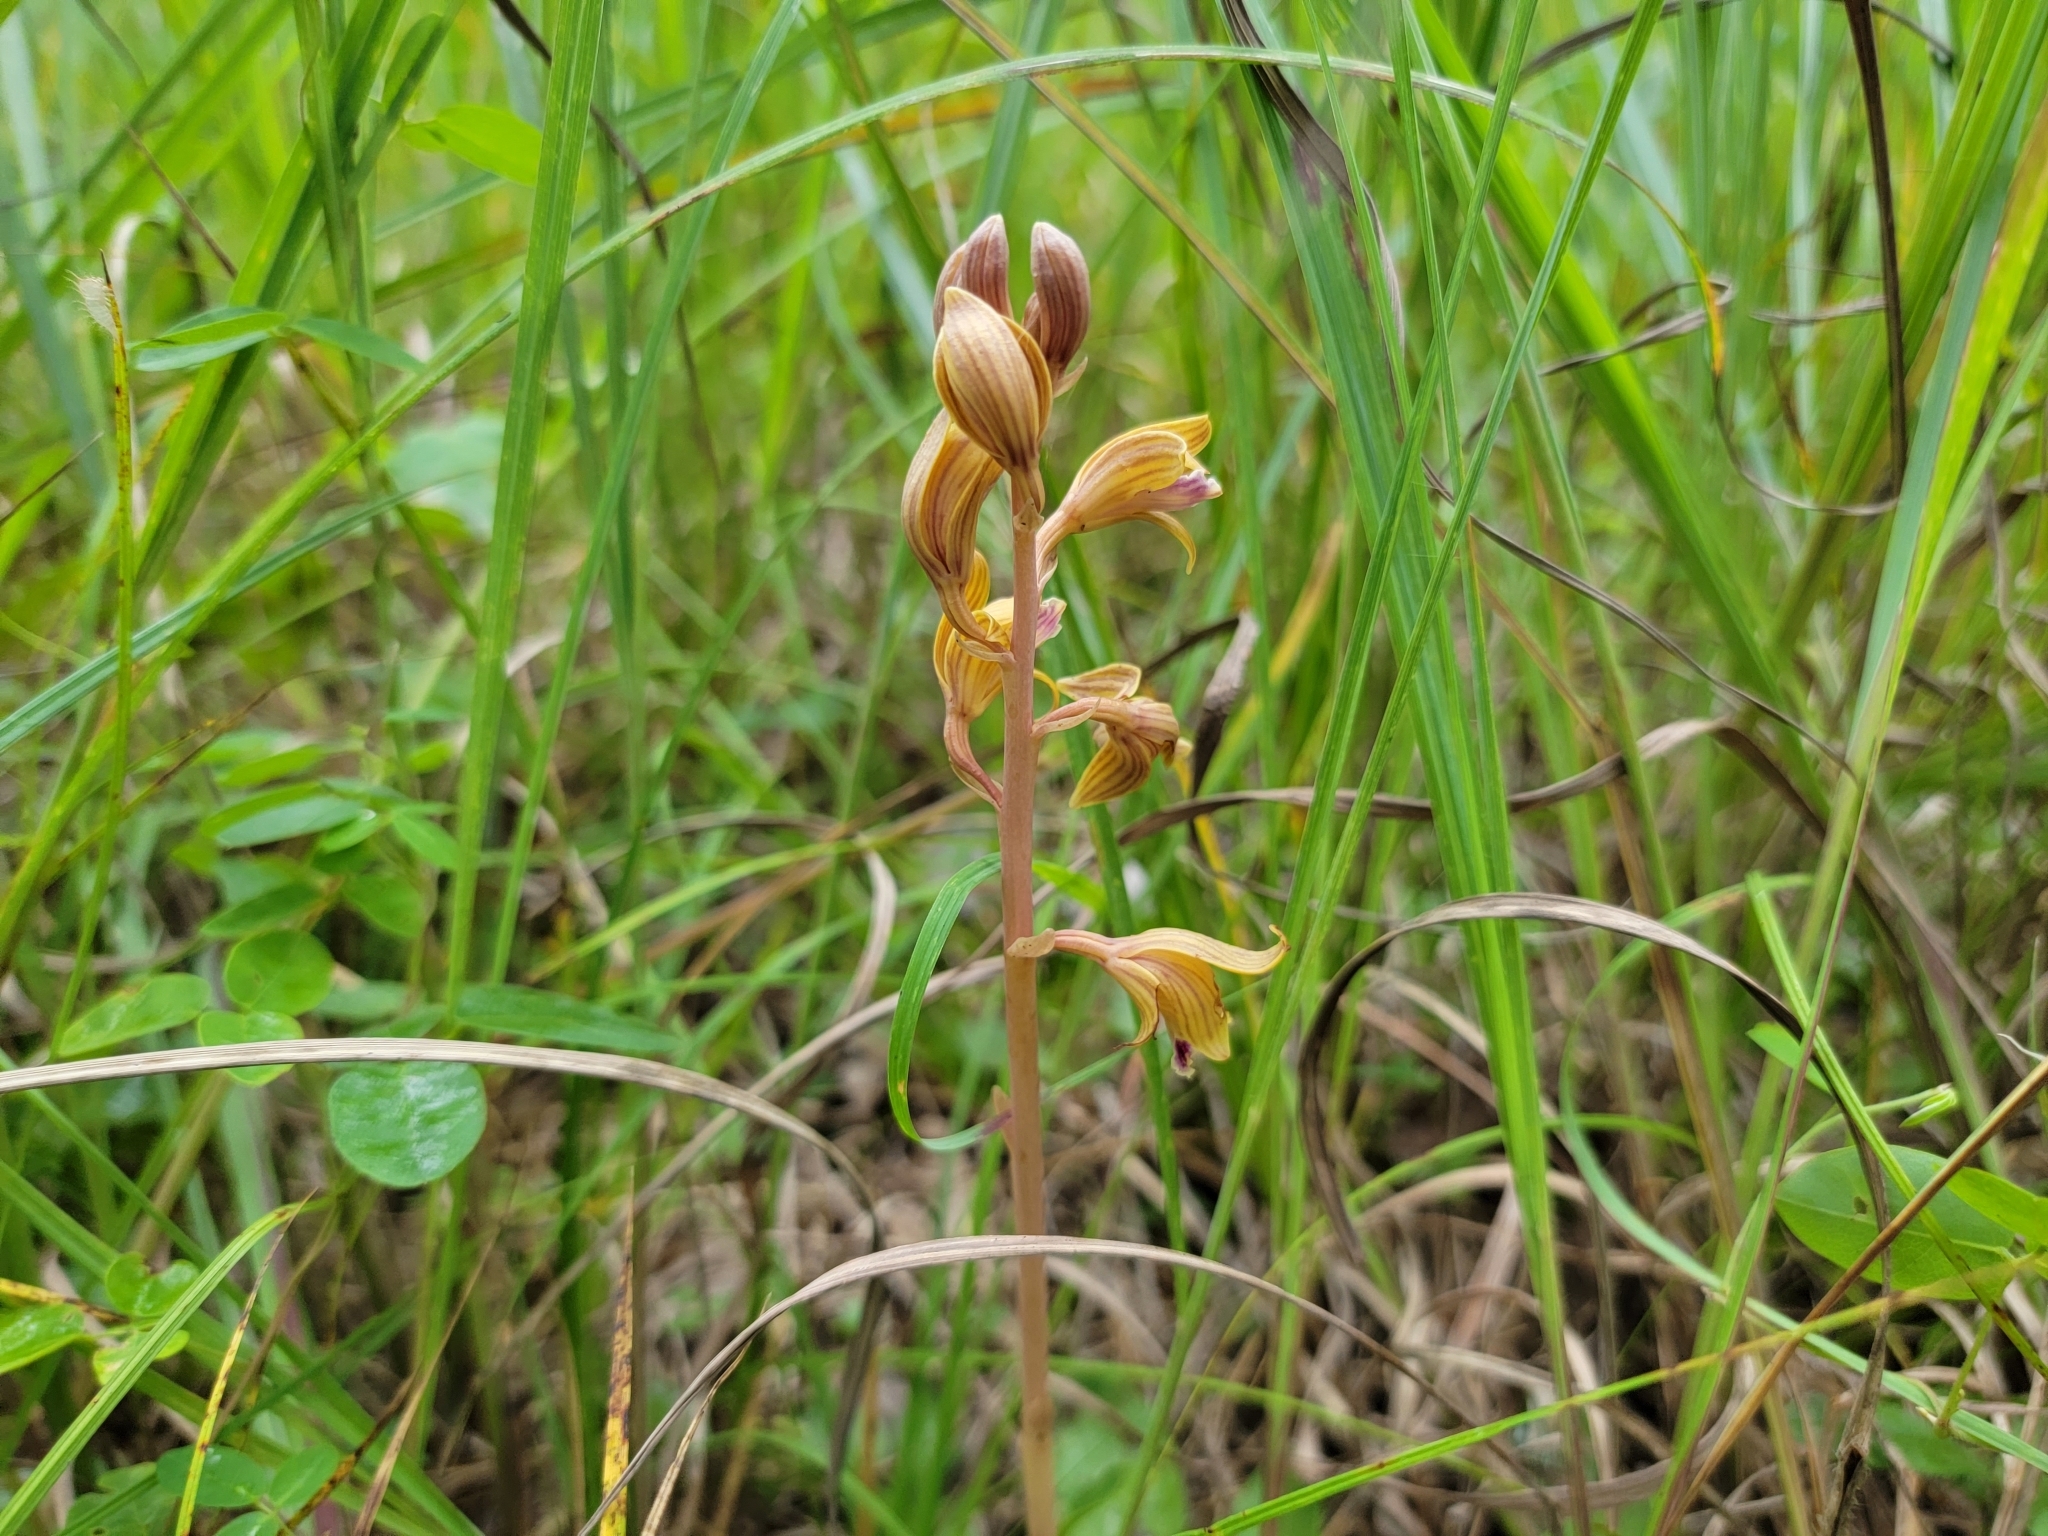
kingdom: Plantae
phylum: Tracheophyta
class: Liliopsida
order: Asparagales
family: Orchidaceae
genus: Bletia
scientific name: Bletia spicata
